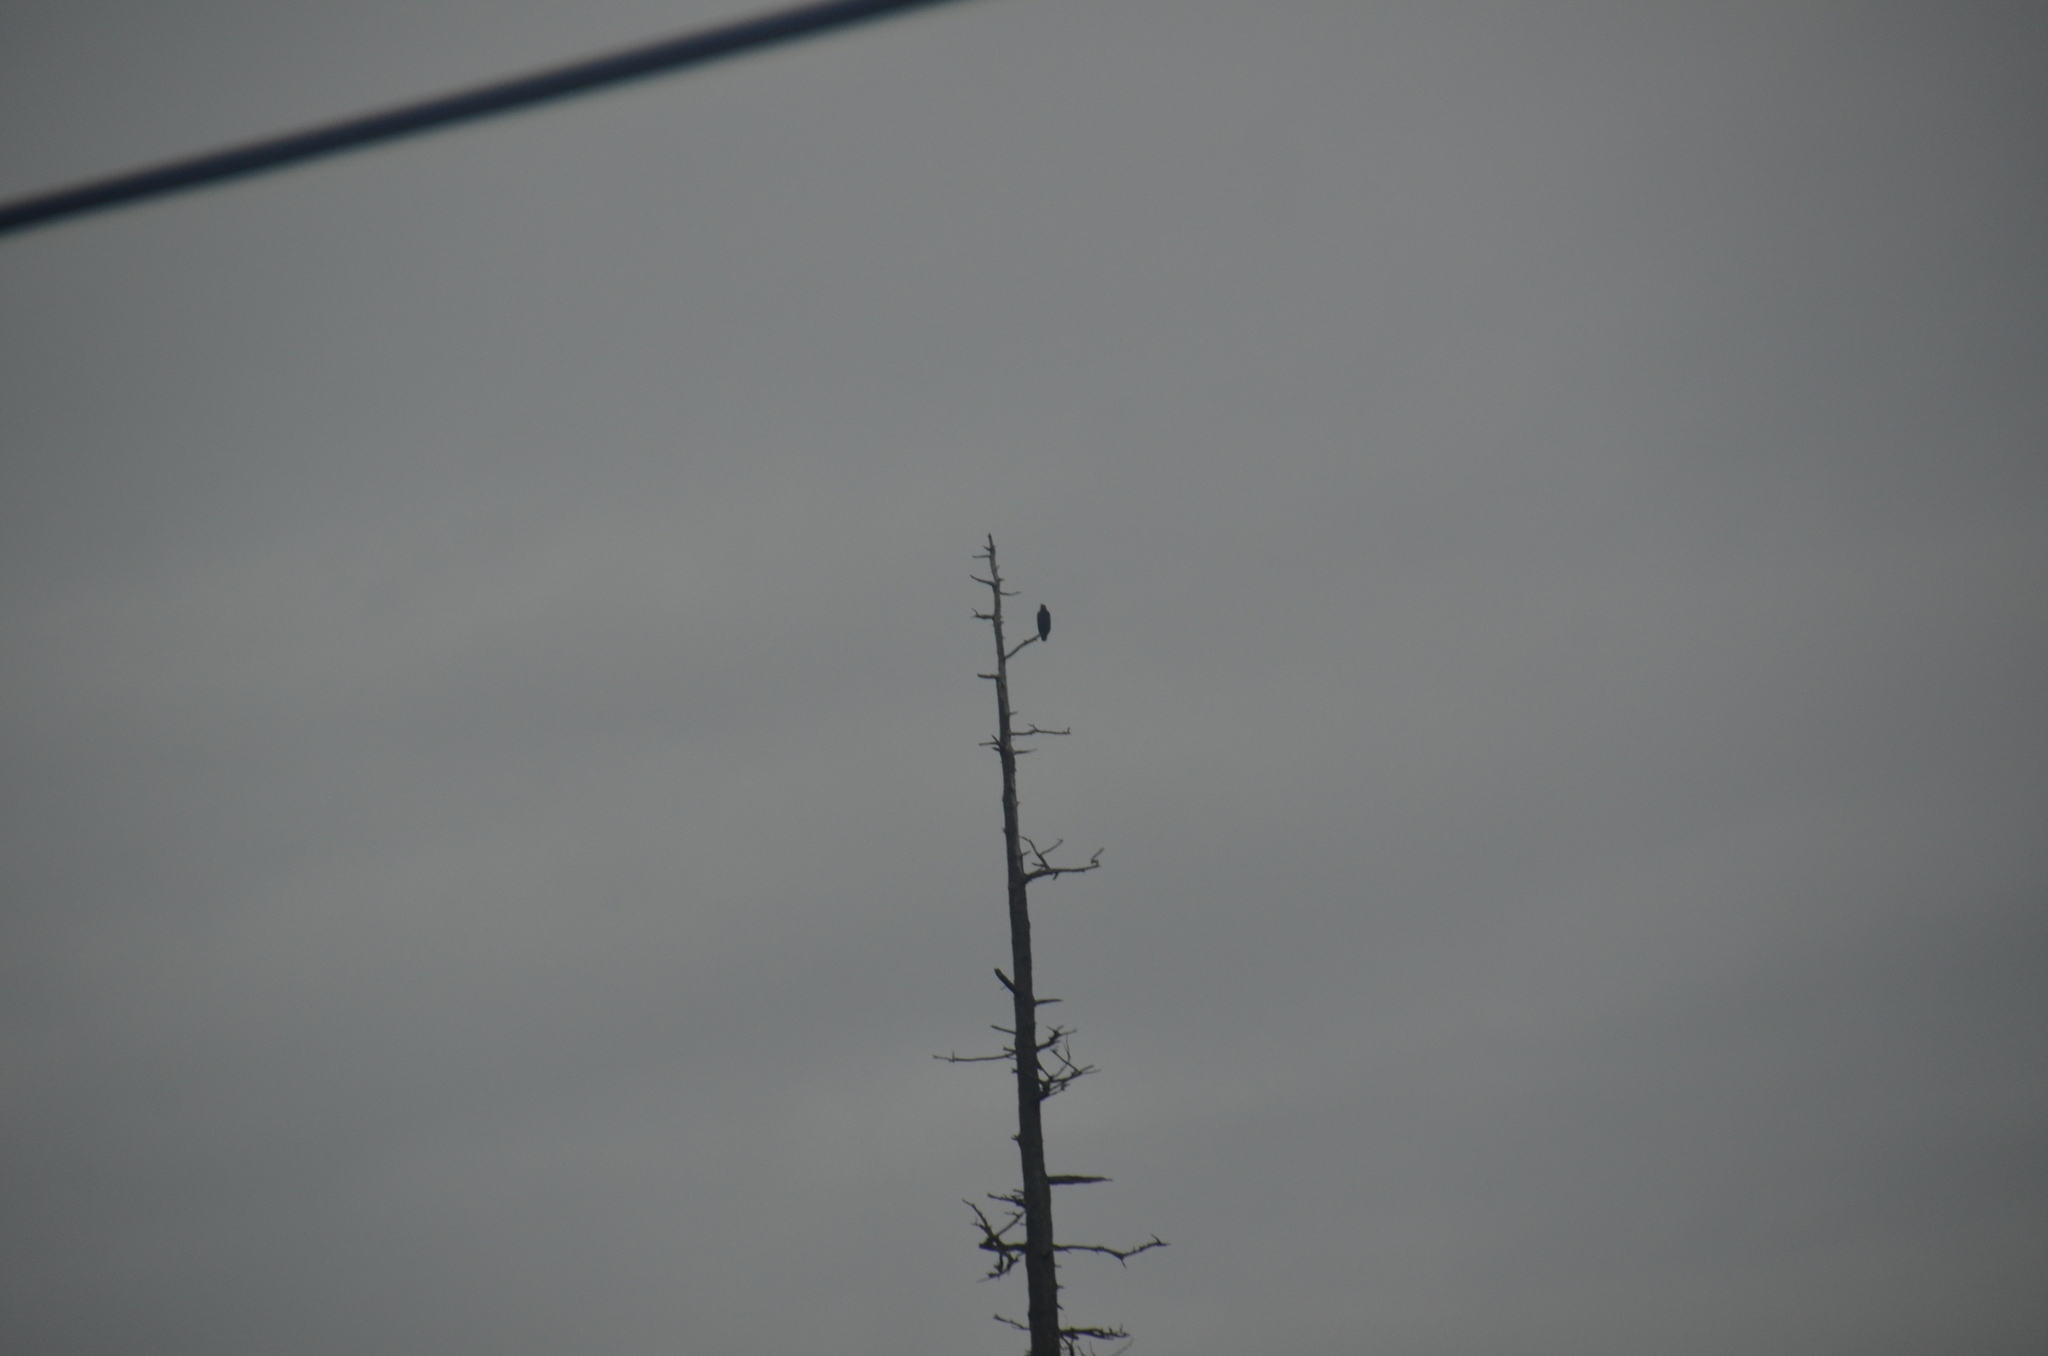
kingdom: Animalia
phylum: Chordata
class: Aves
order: Accipitriformes
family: Accipitridae
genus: Haliaeetus
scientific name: Haliaeetus leucocephalus
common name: Bald eagle
